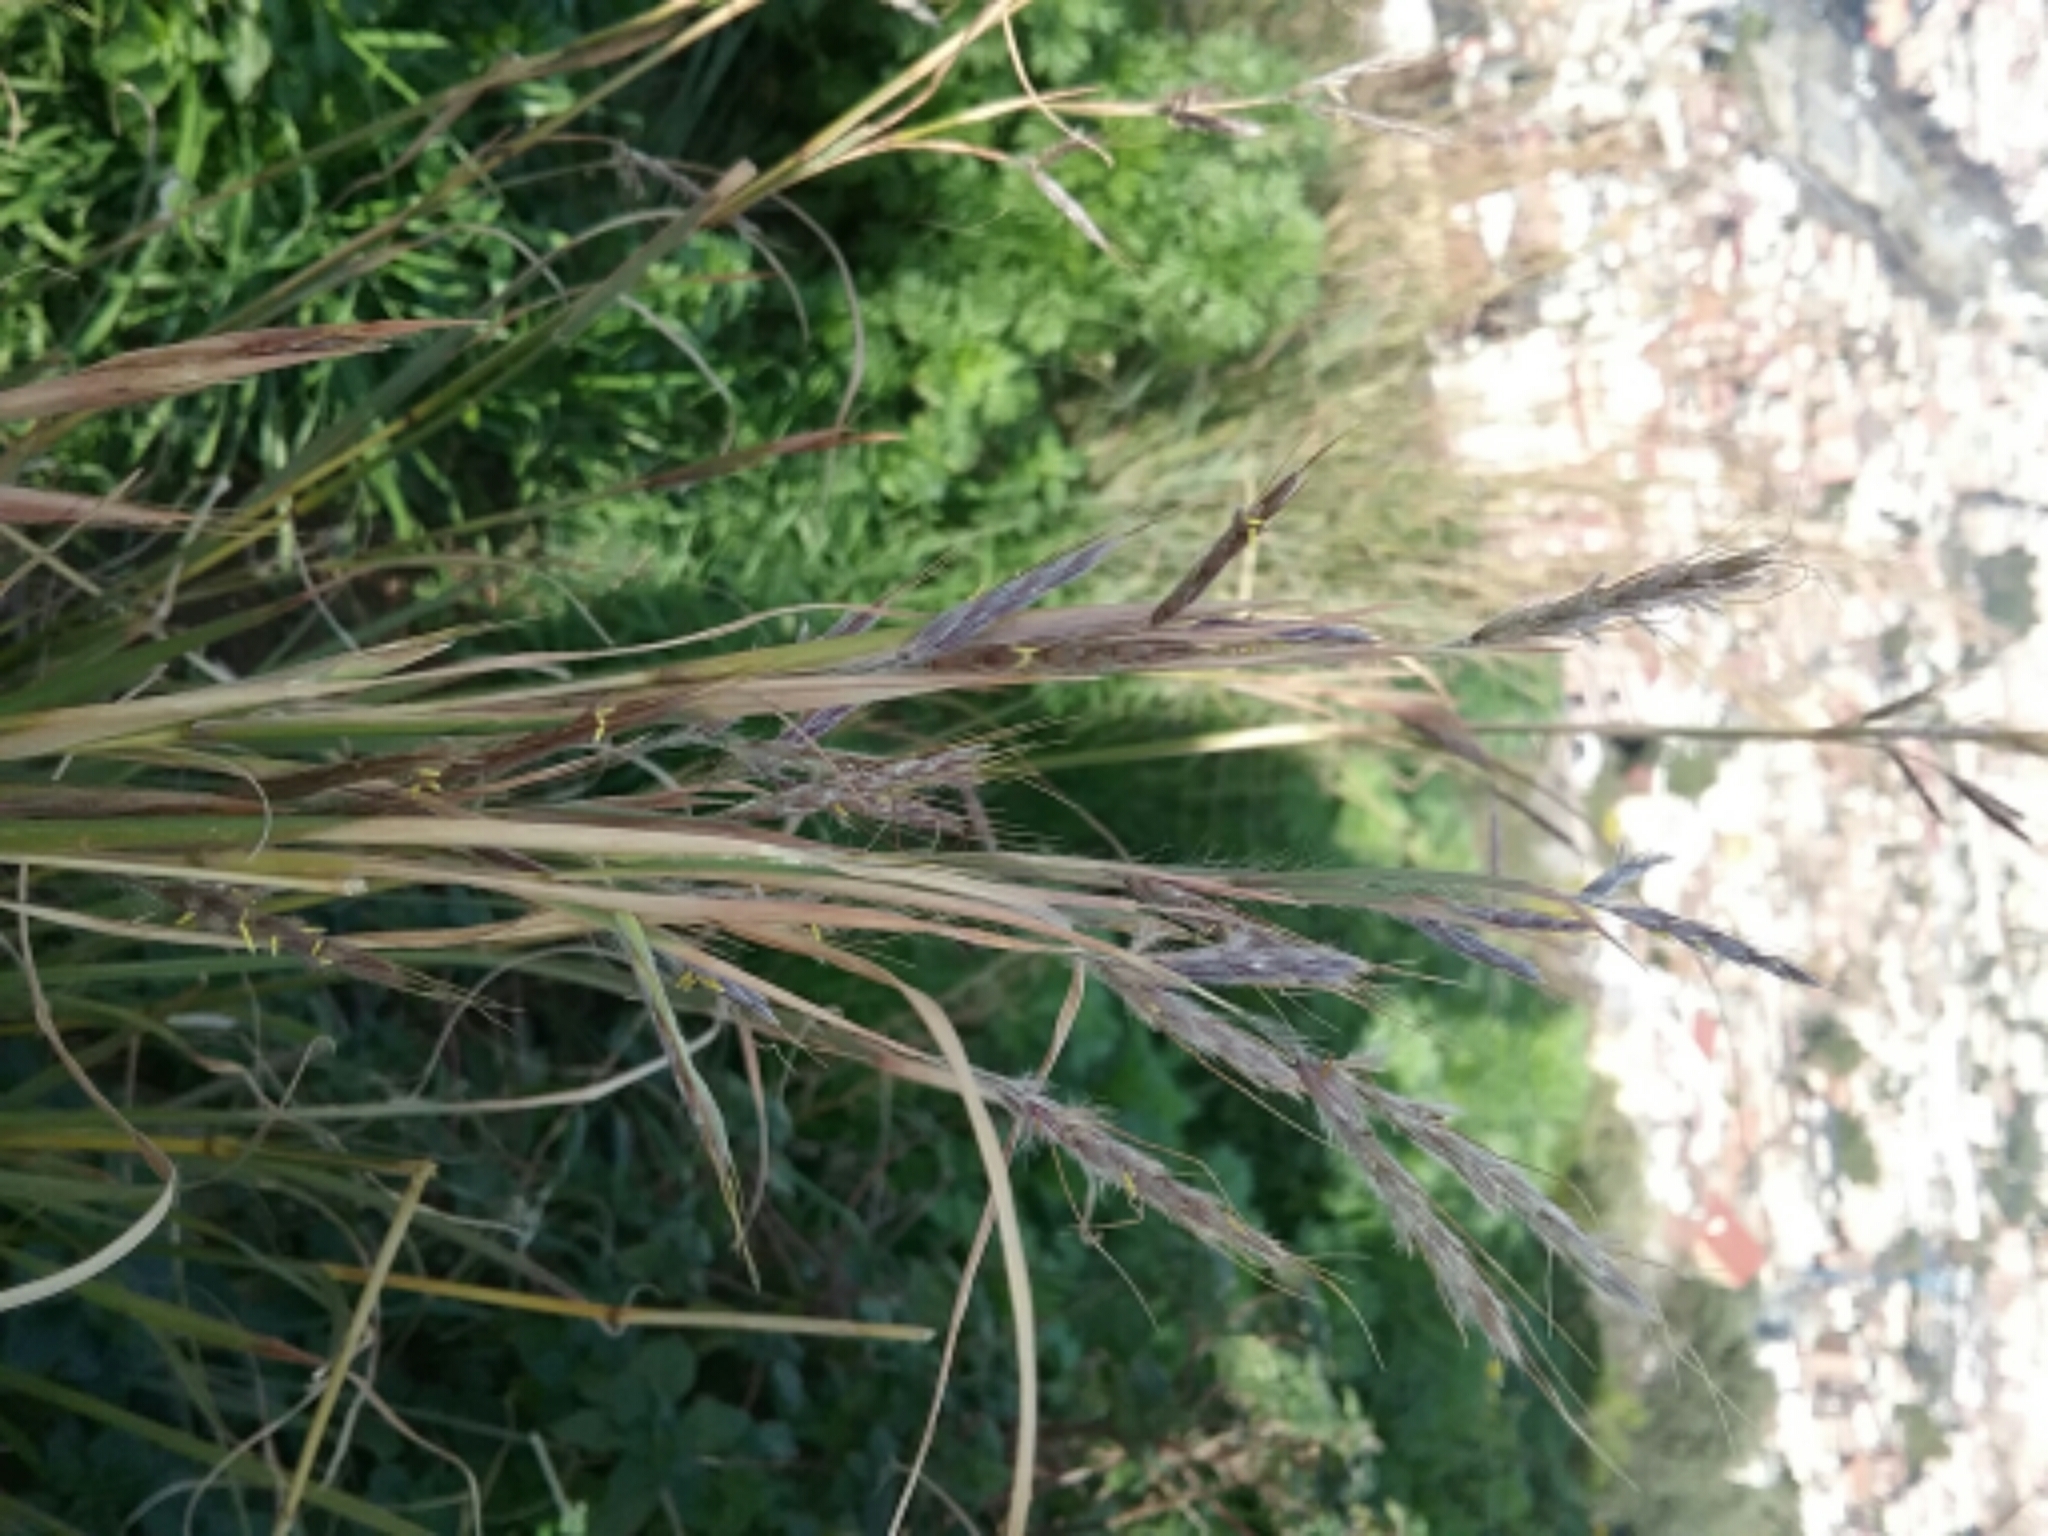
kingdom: Plantae
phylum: Tracheophyta
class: Liliopsida
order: Poales
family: Poaceae
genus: Hyparrhenia
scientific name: Hyparrhenia hirta
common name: Thatching grass
